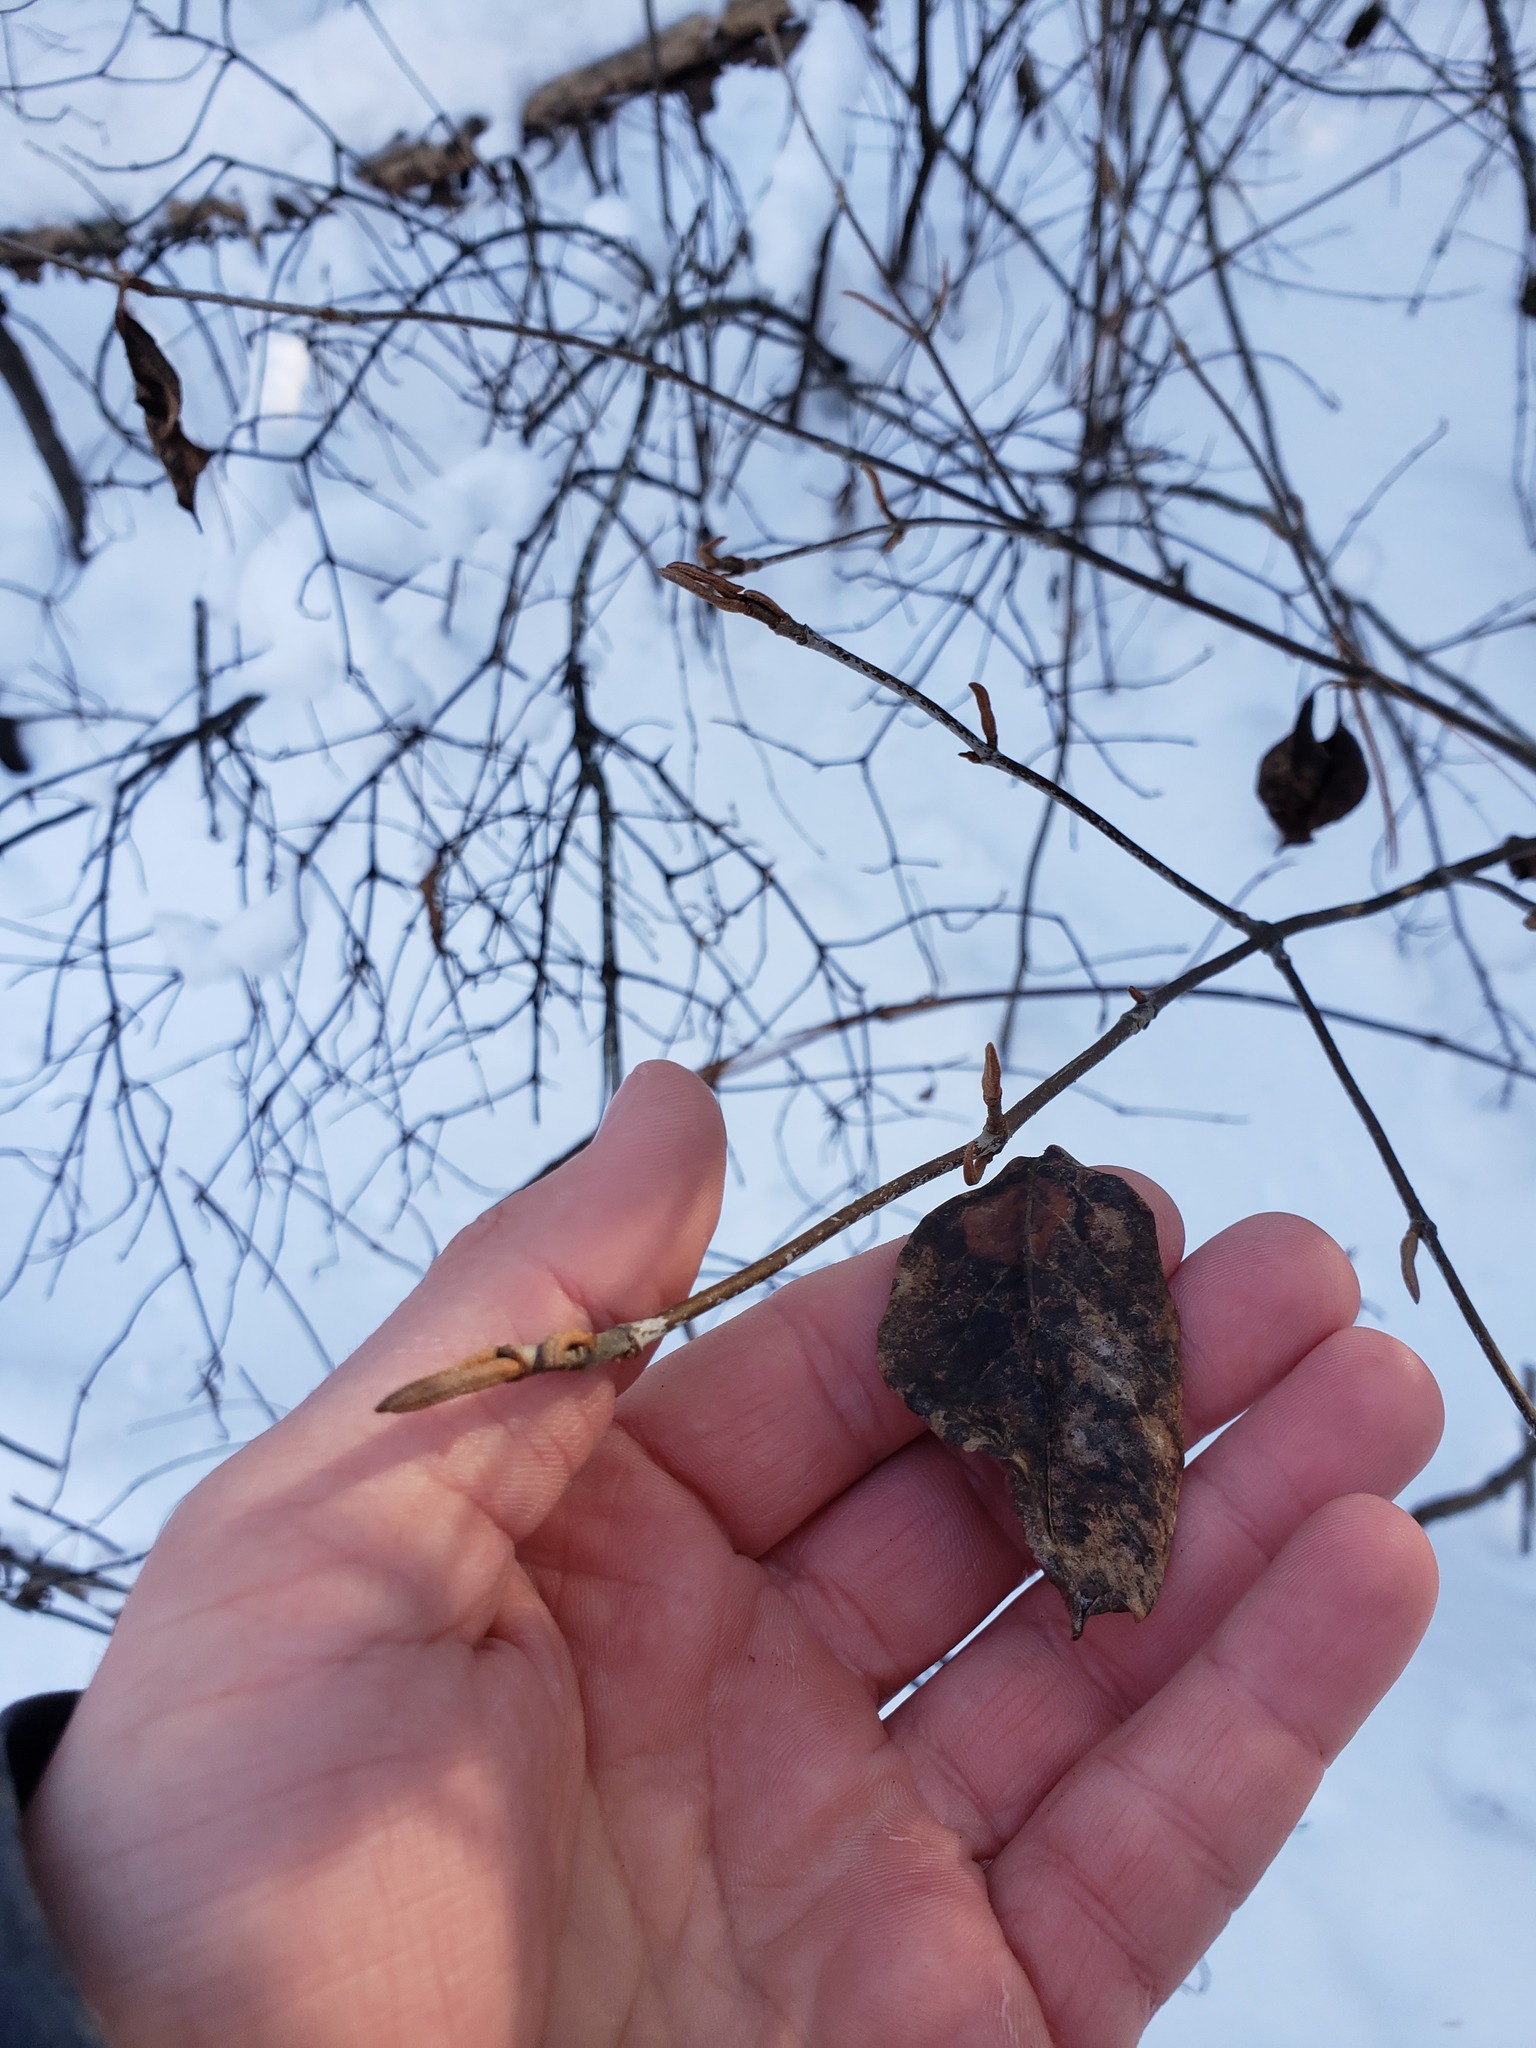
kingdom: Plantae
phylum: Tracheophyta
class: Magnoliopsida
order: Dipsacales
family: Viburnaceae
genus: Viburnum
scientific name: Viburnum cassinoides
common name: Swamp haw
